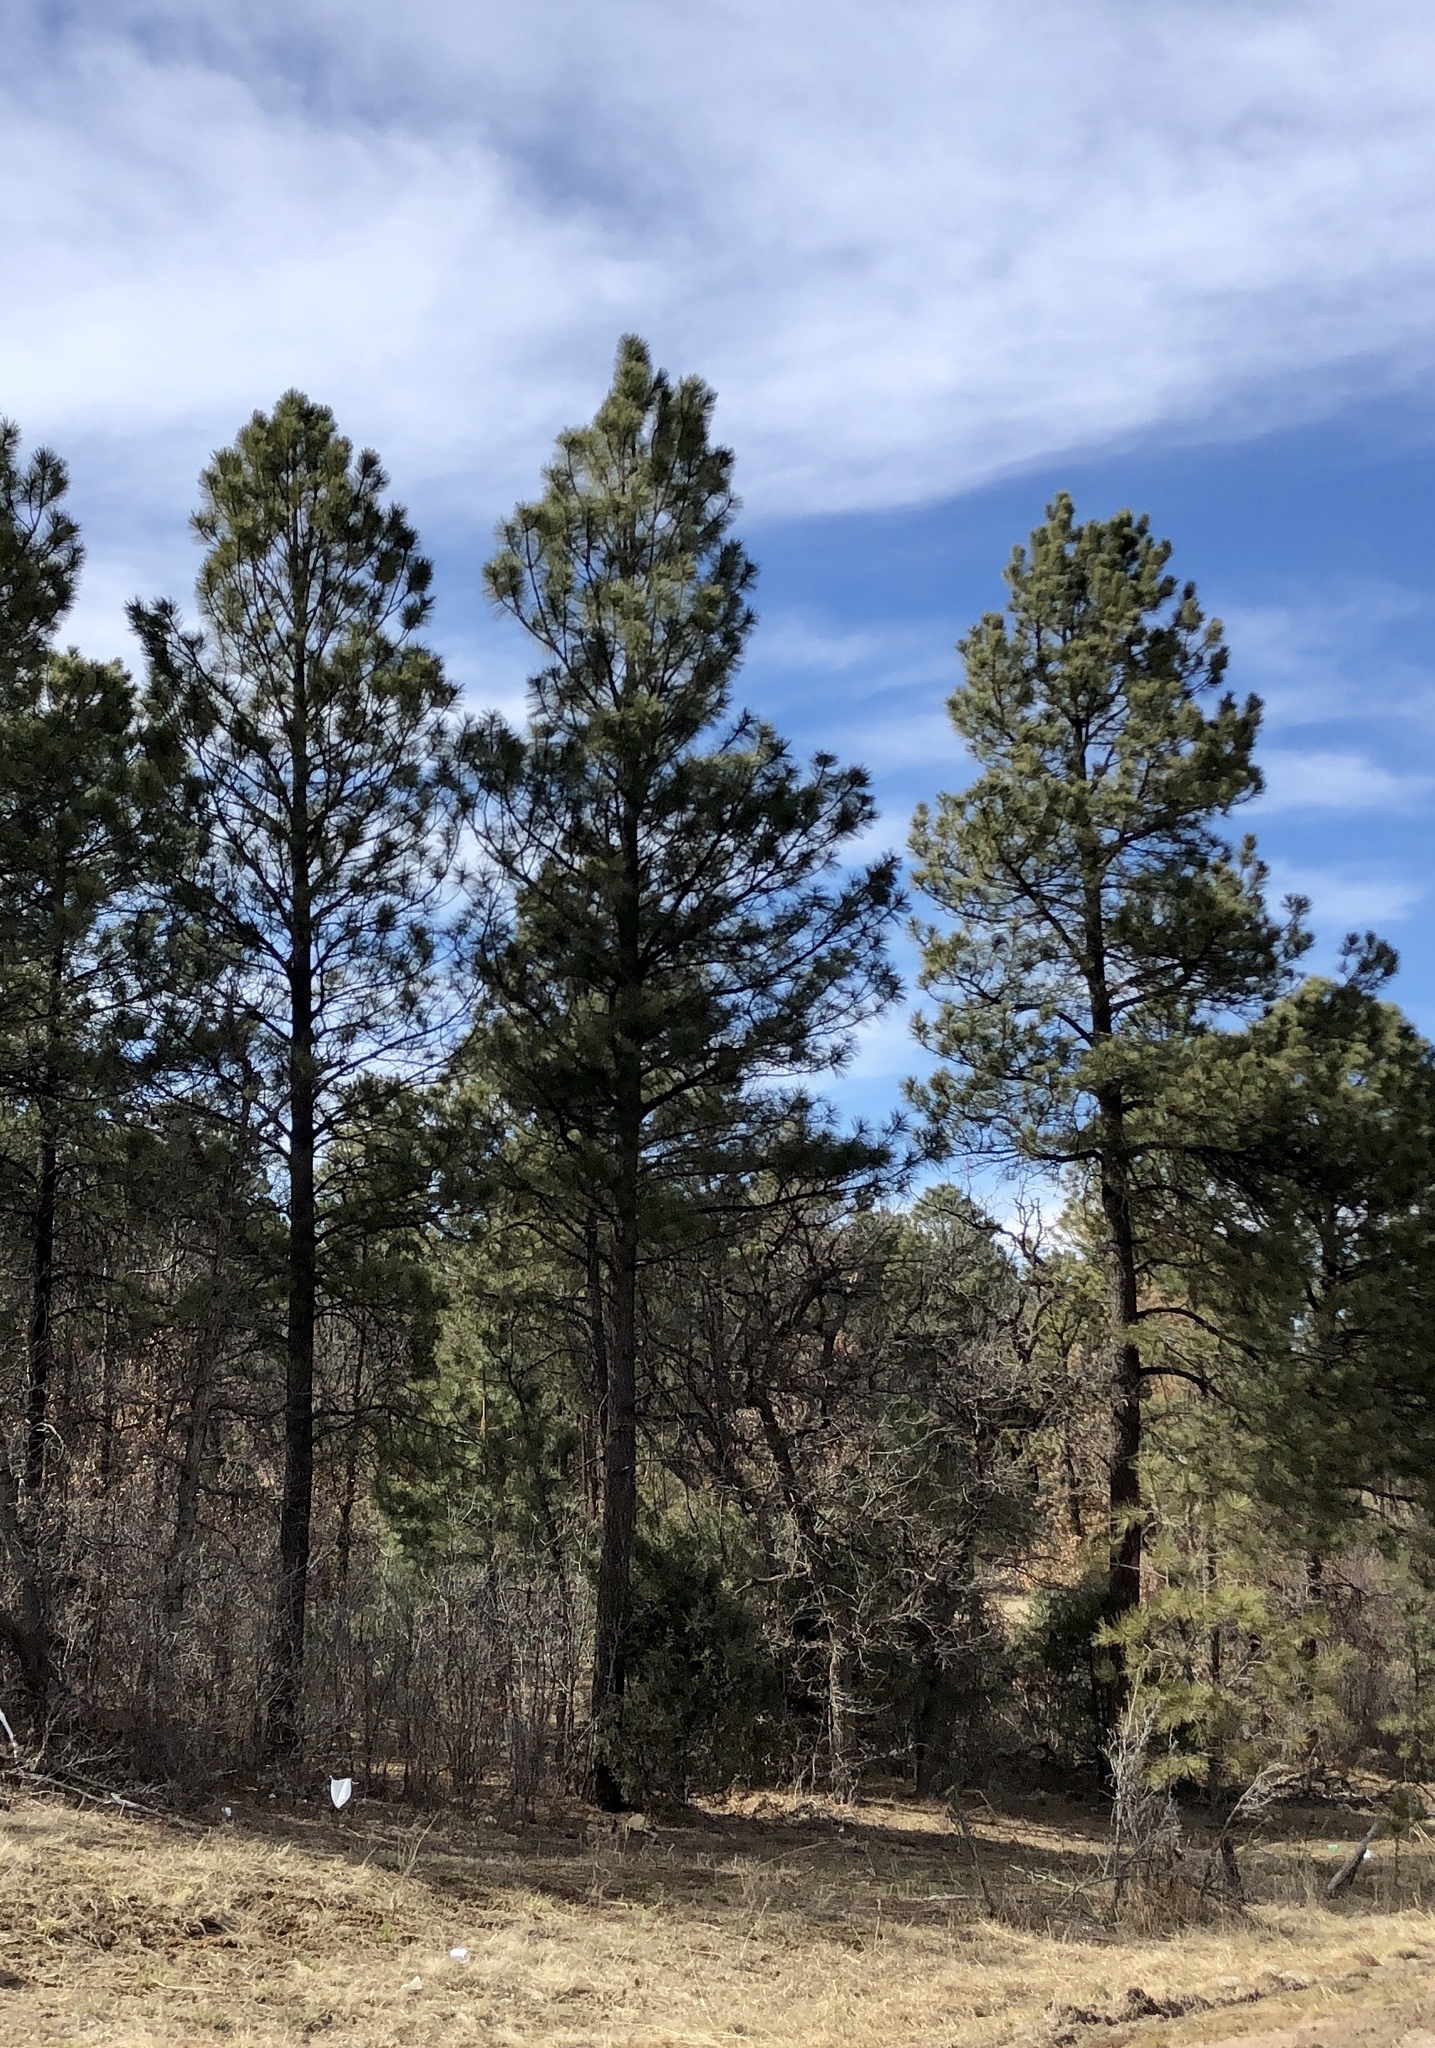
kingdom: Plantae
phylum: Tracheophyta
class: Pinopsida
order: Pinales
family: Pinaceae
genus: Pinus
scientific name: Pinus ponderosa
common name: Western yellow-pine
